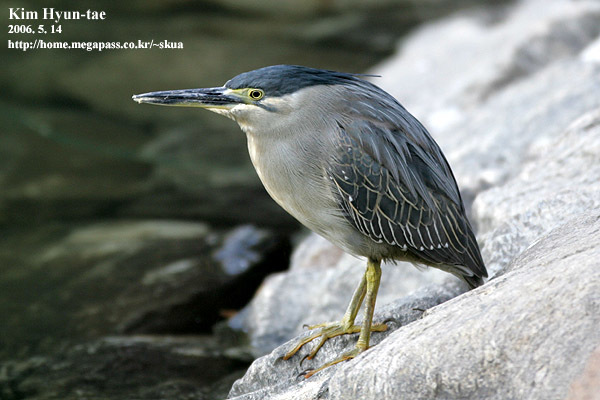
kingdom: Animalia
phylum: Chordata
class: Aves
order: Pelecaniformes
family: Ardeidae
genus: Butorides
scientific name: Butorides striata
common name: Striated heron
